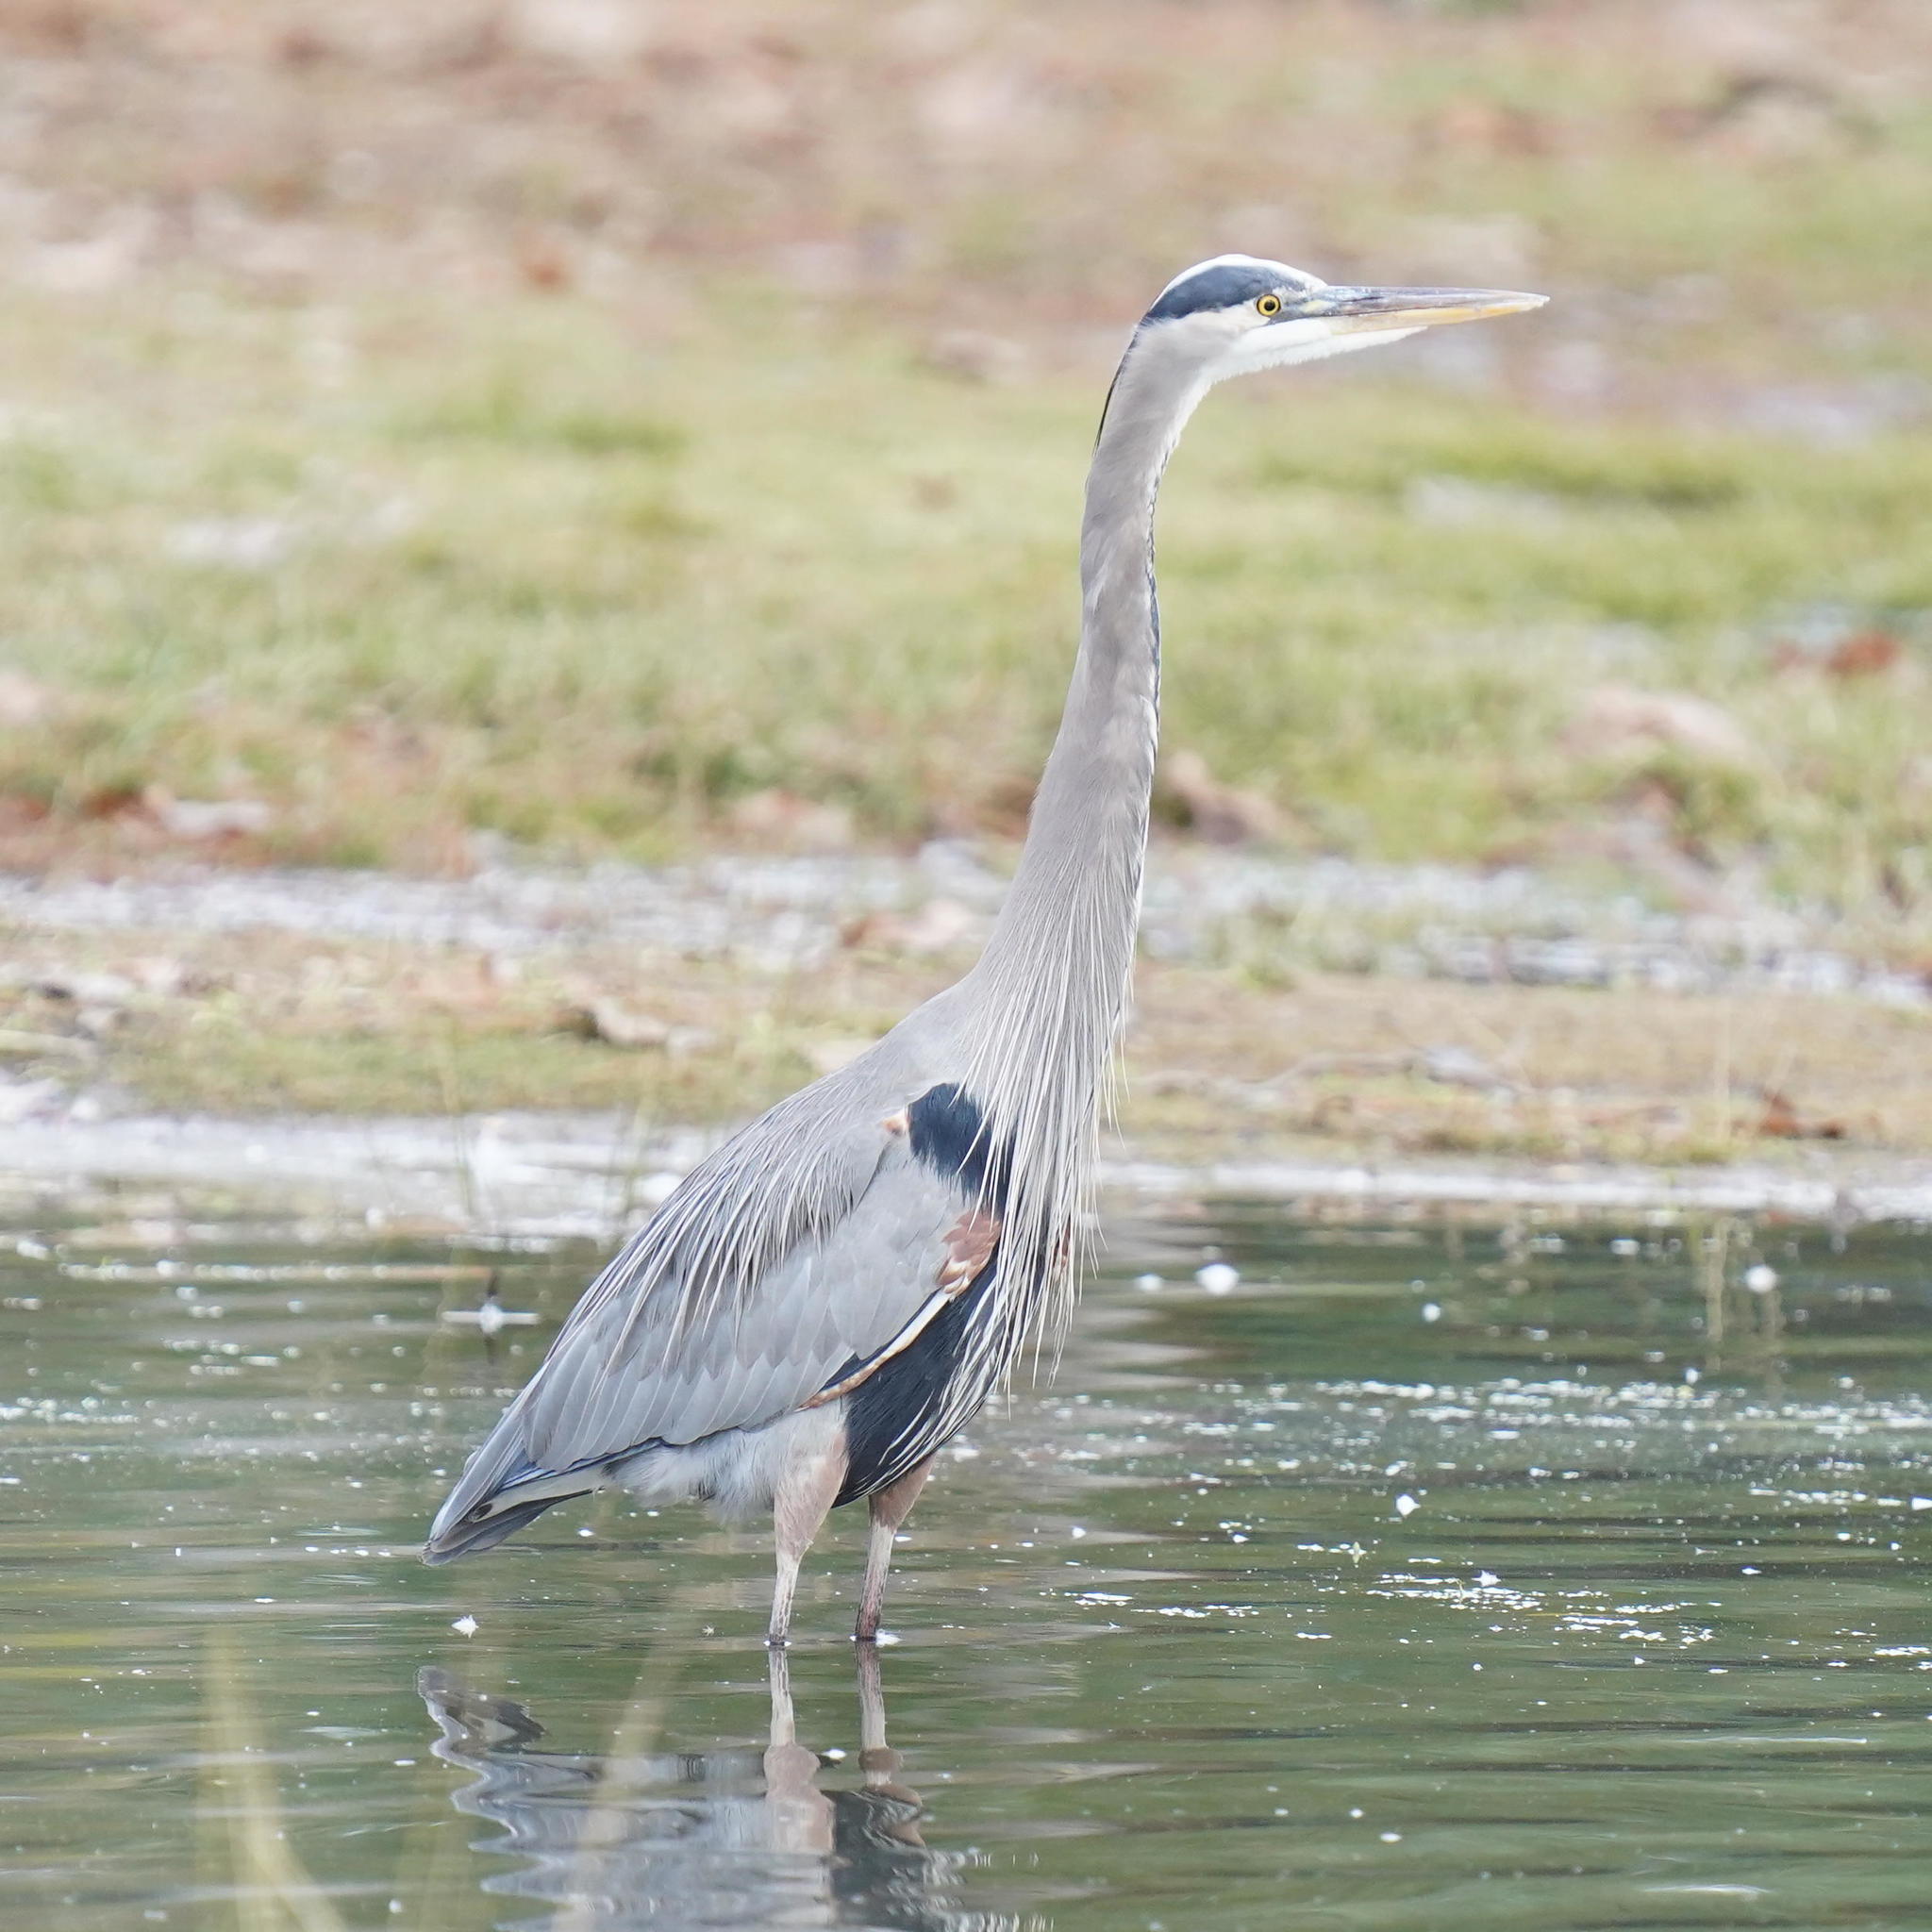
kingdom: Animalia
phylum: Chordata
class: Aves
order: Pelecaniformes
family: Ardeidae
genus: Ardea
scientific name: Ardea herodias
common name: Great blue heron
